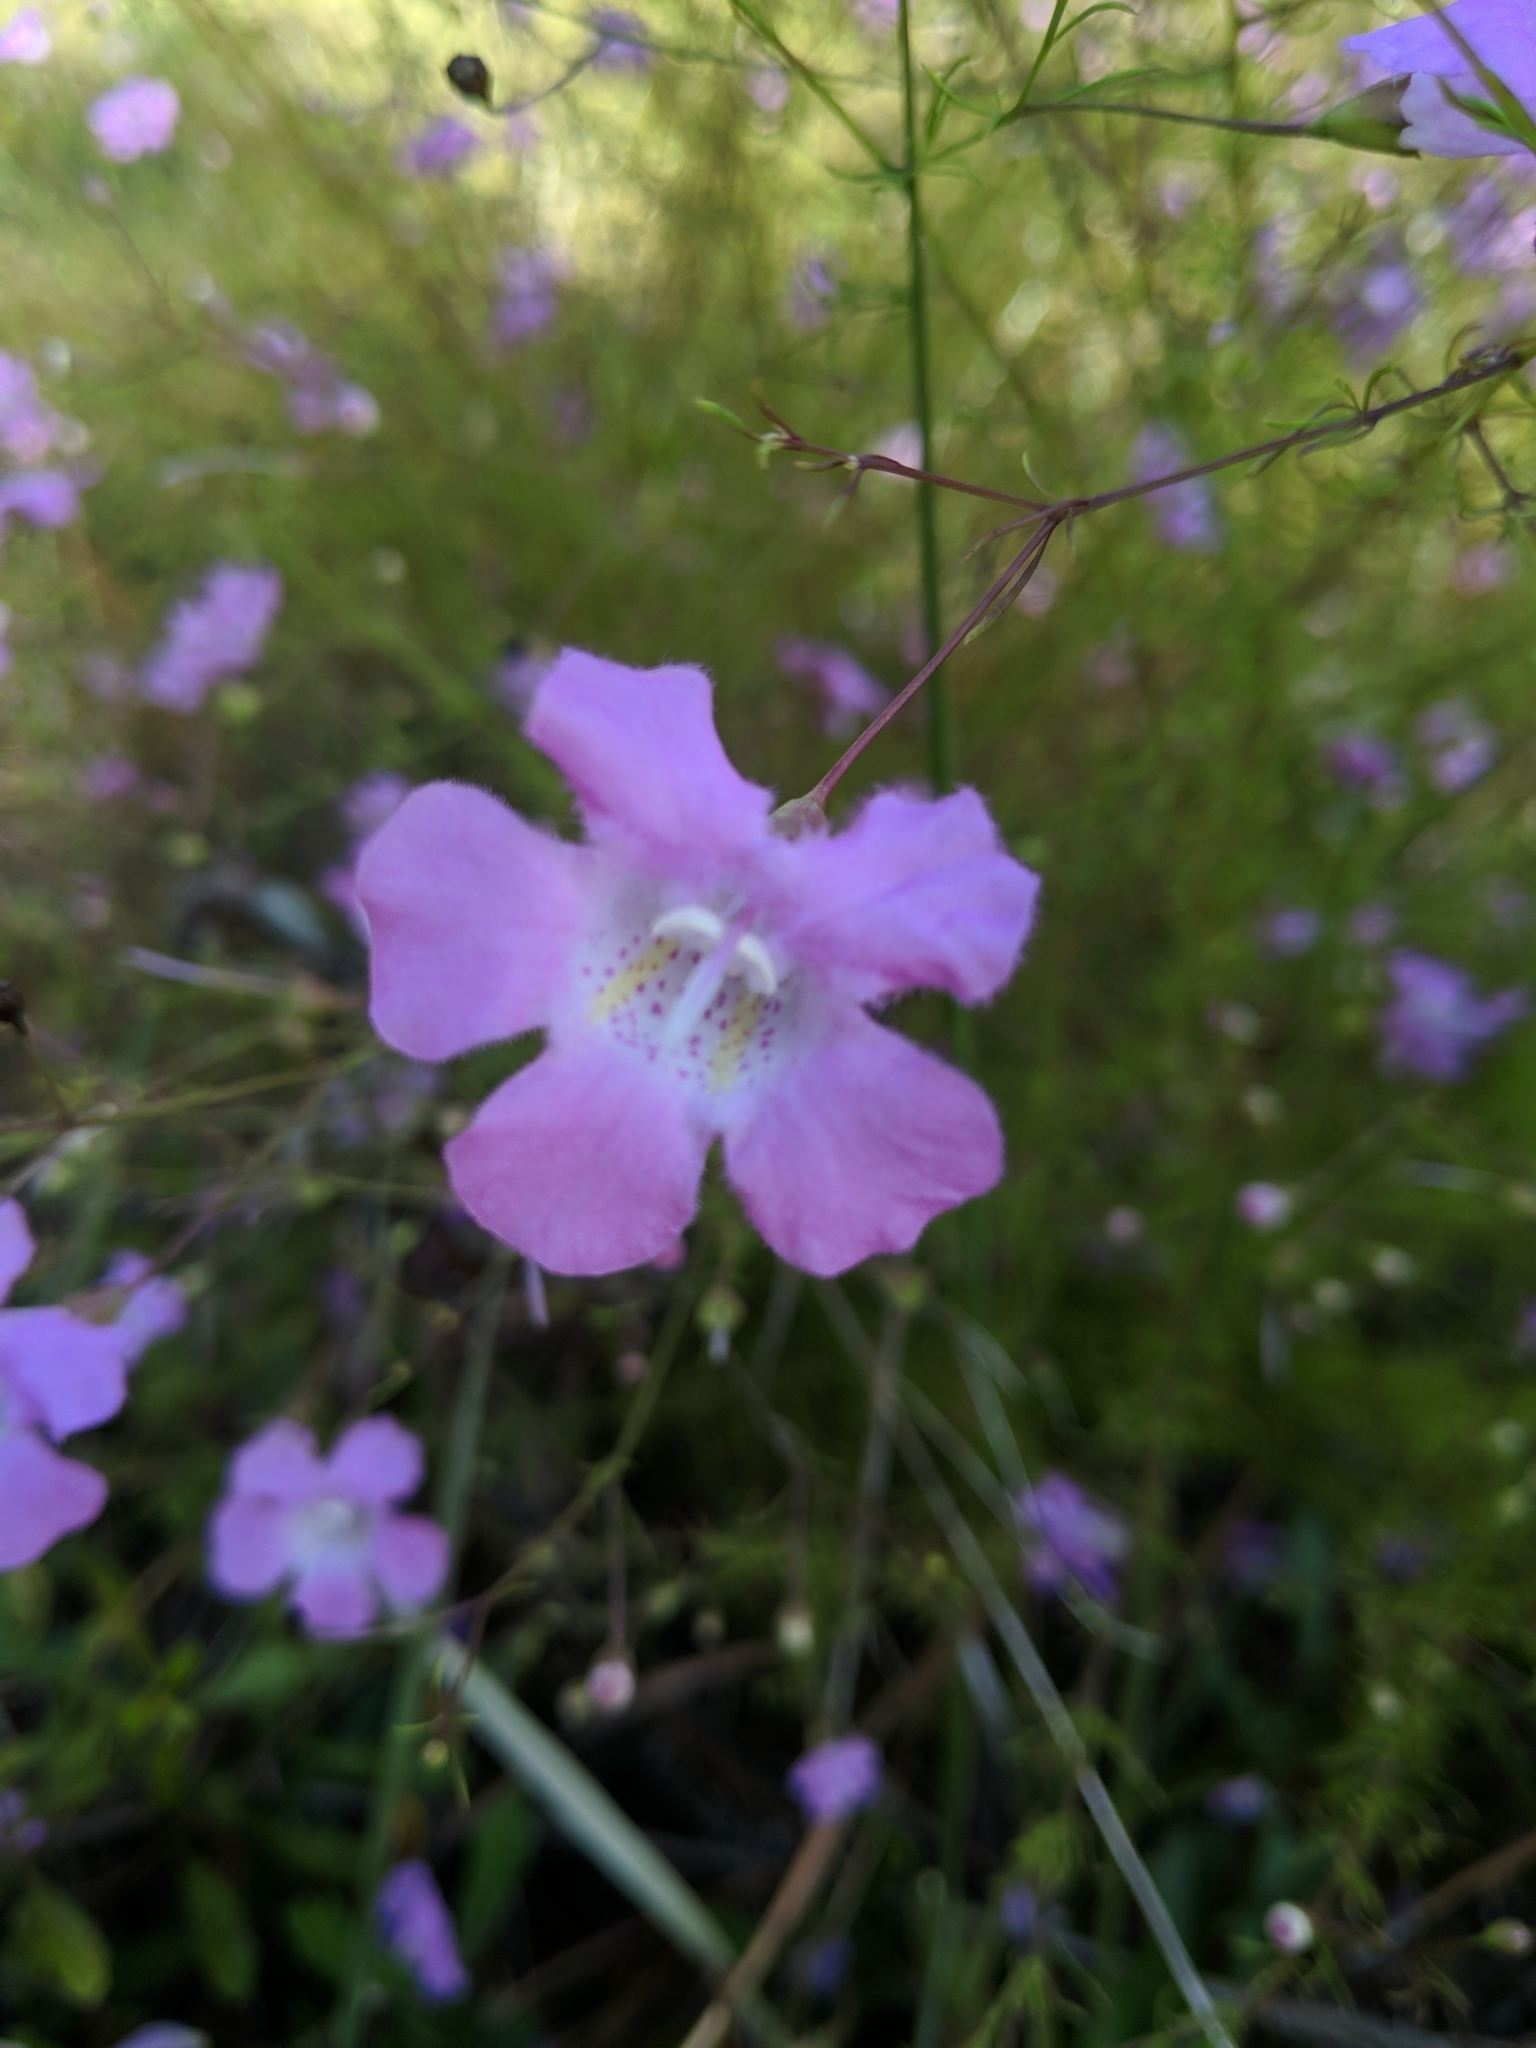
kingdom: Plantae
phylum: Tracheophyta
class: Magnoliopsida
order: Lamiales
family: Orobanchaceae
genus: Agalinis
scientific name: Agalinis filifolia
